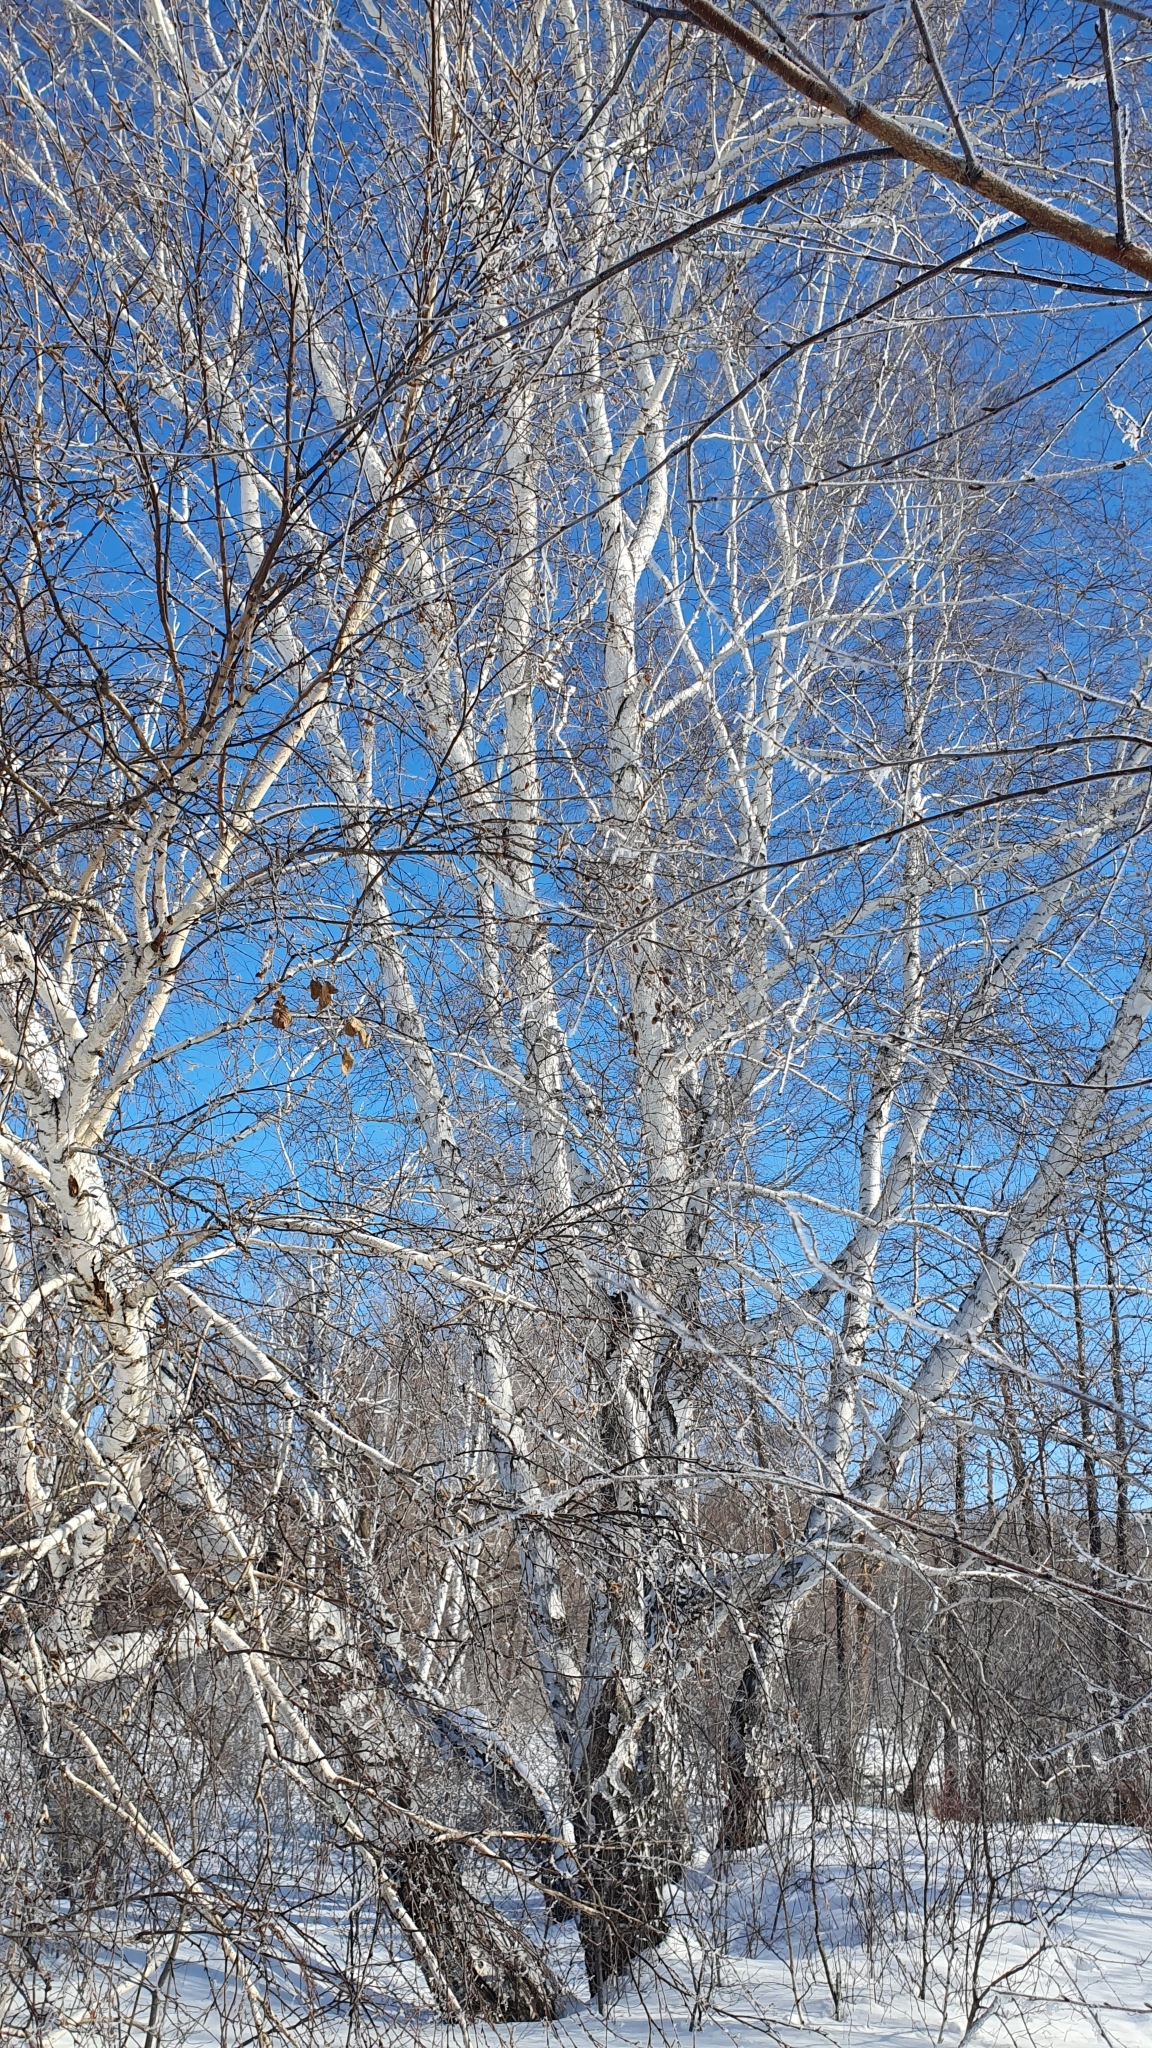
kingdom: Plantae
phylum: Tracheophyta
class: Magnoliopsida
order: Fagales
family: Betulaceae
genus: Betula
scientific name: Betula pendula
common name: Silver birch
